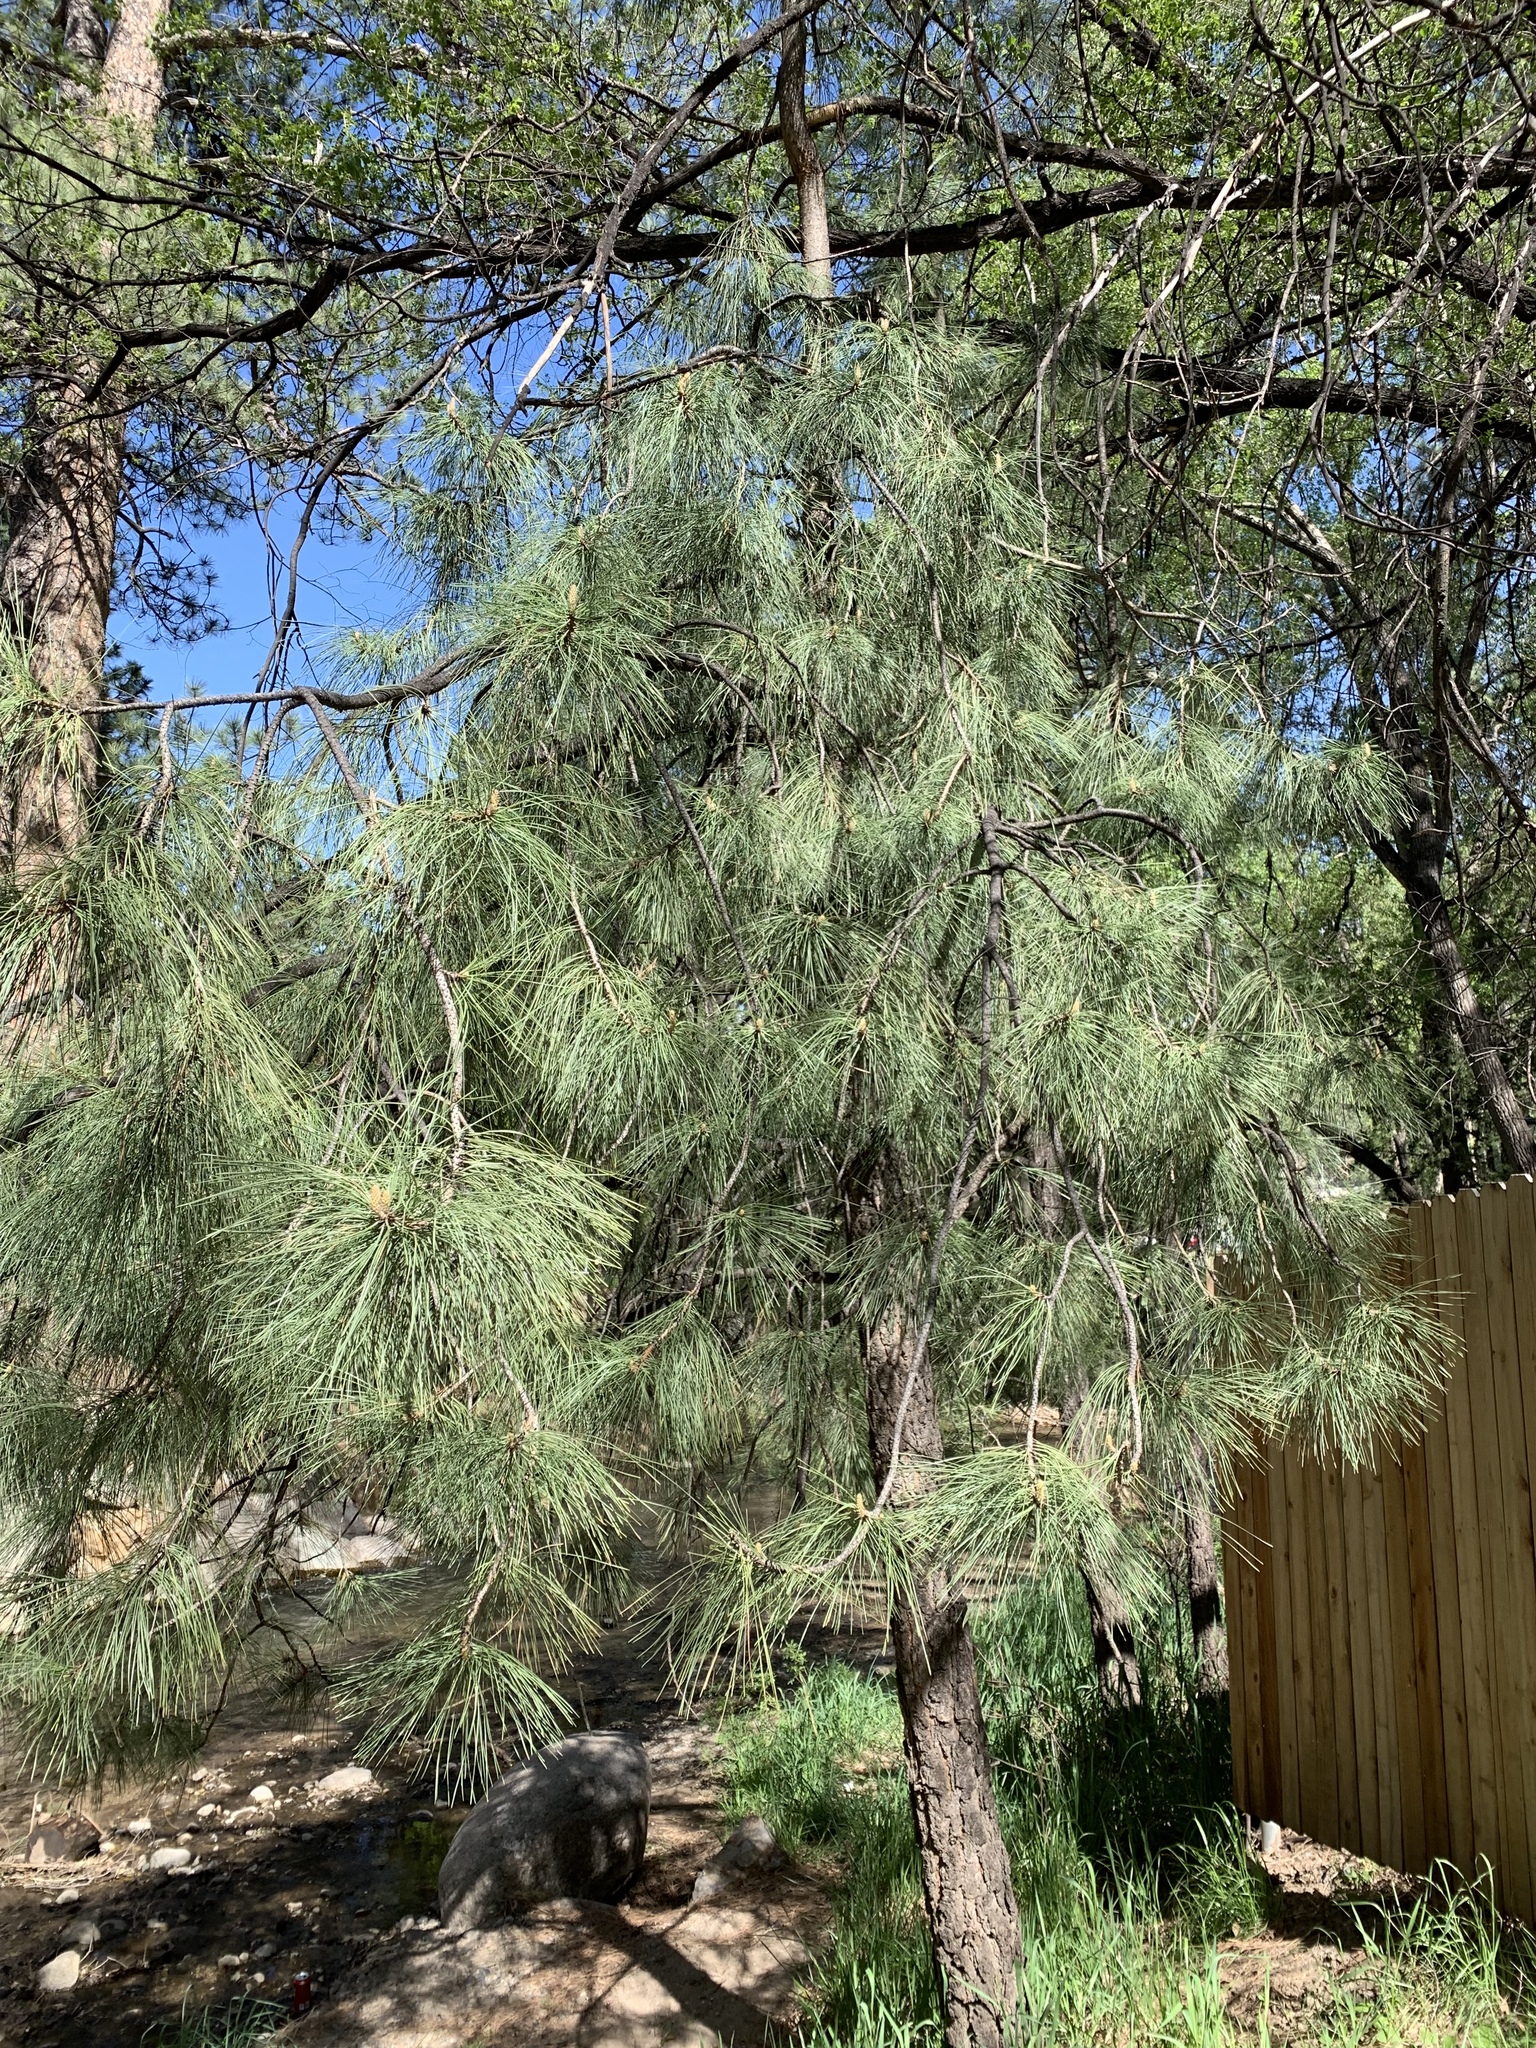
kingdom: Plantae
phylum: Tracheophyta
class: Pinopsida
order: Pinales
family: Pinaceae
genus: Pinus
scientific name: Pinus ponderosa
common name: Western yellow-pine
